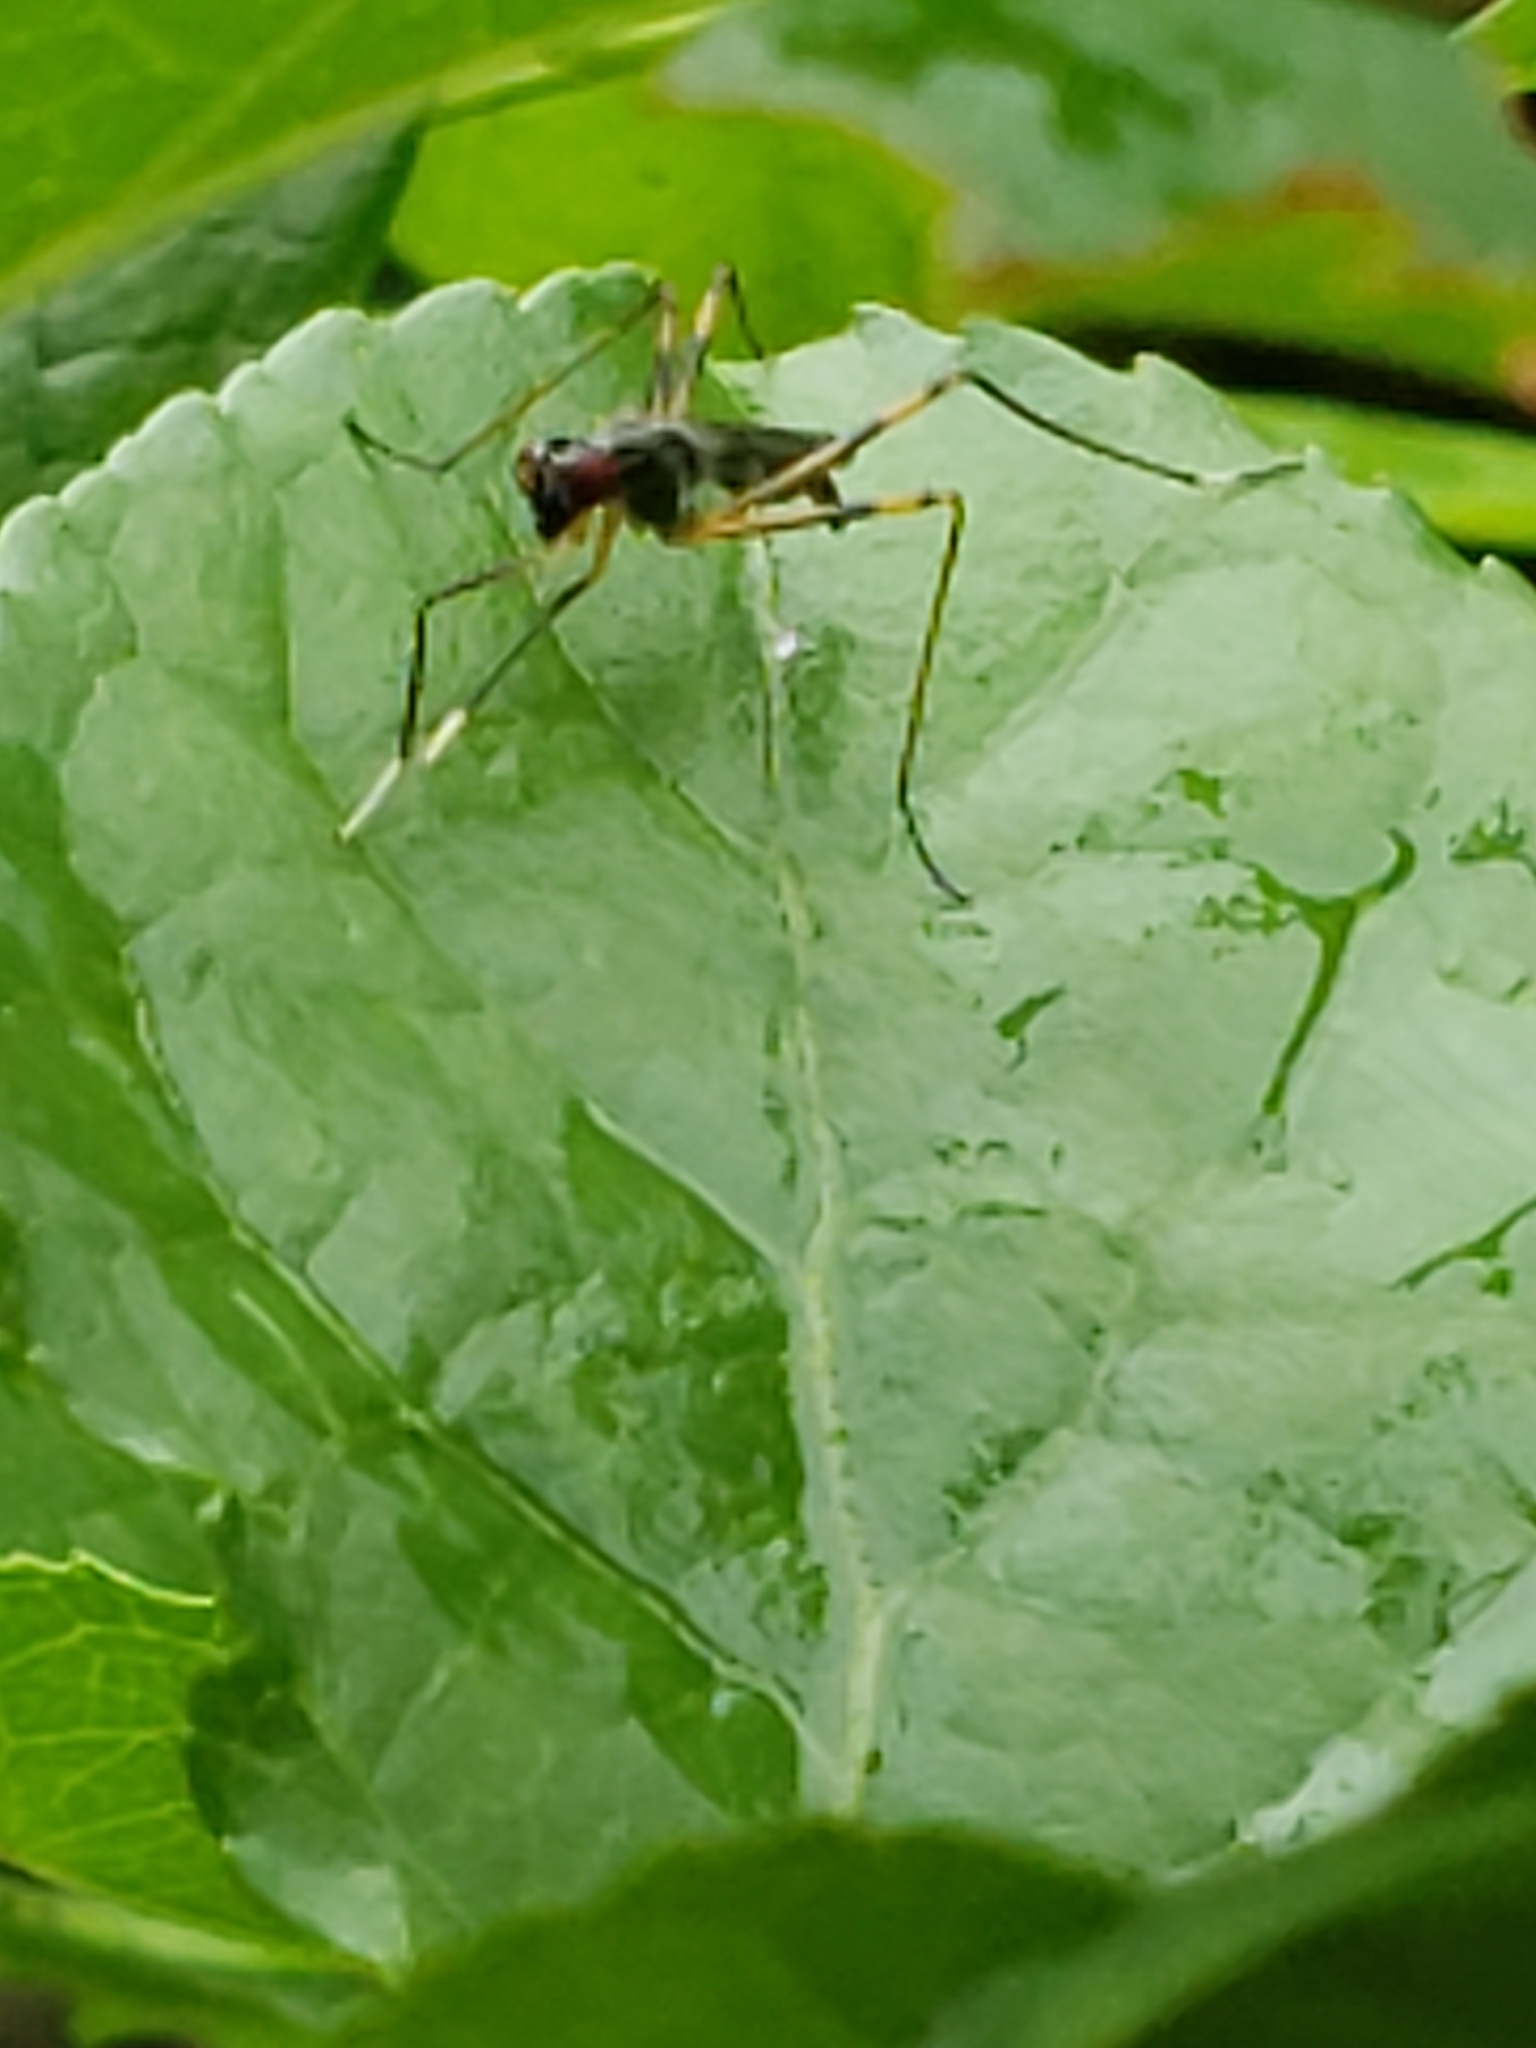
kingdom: Animalia
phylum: Arthropoda
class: Insecta
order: Diptera
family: Micropezidae
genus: Rainieria
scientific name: Rainieria antennaepes
